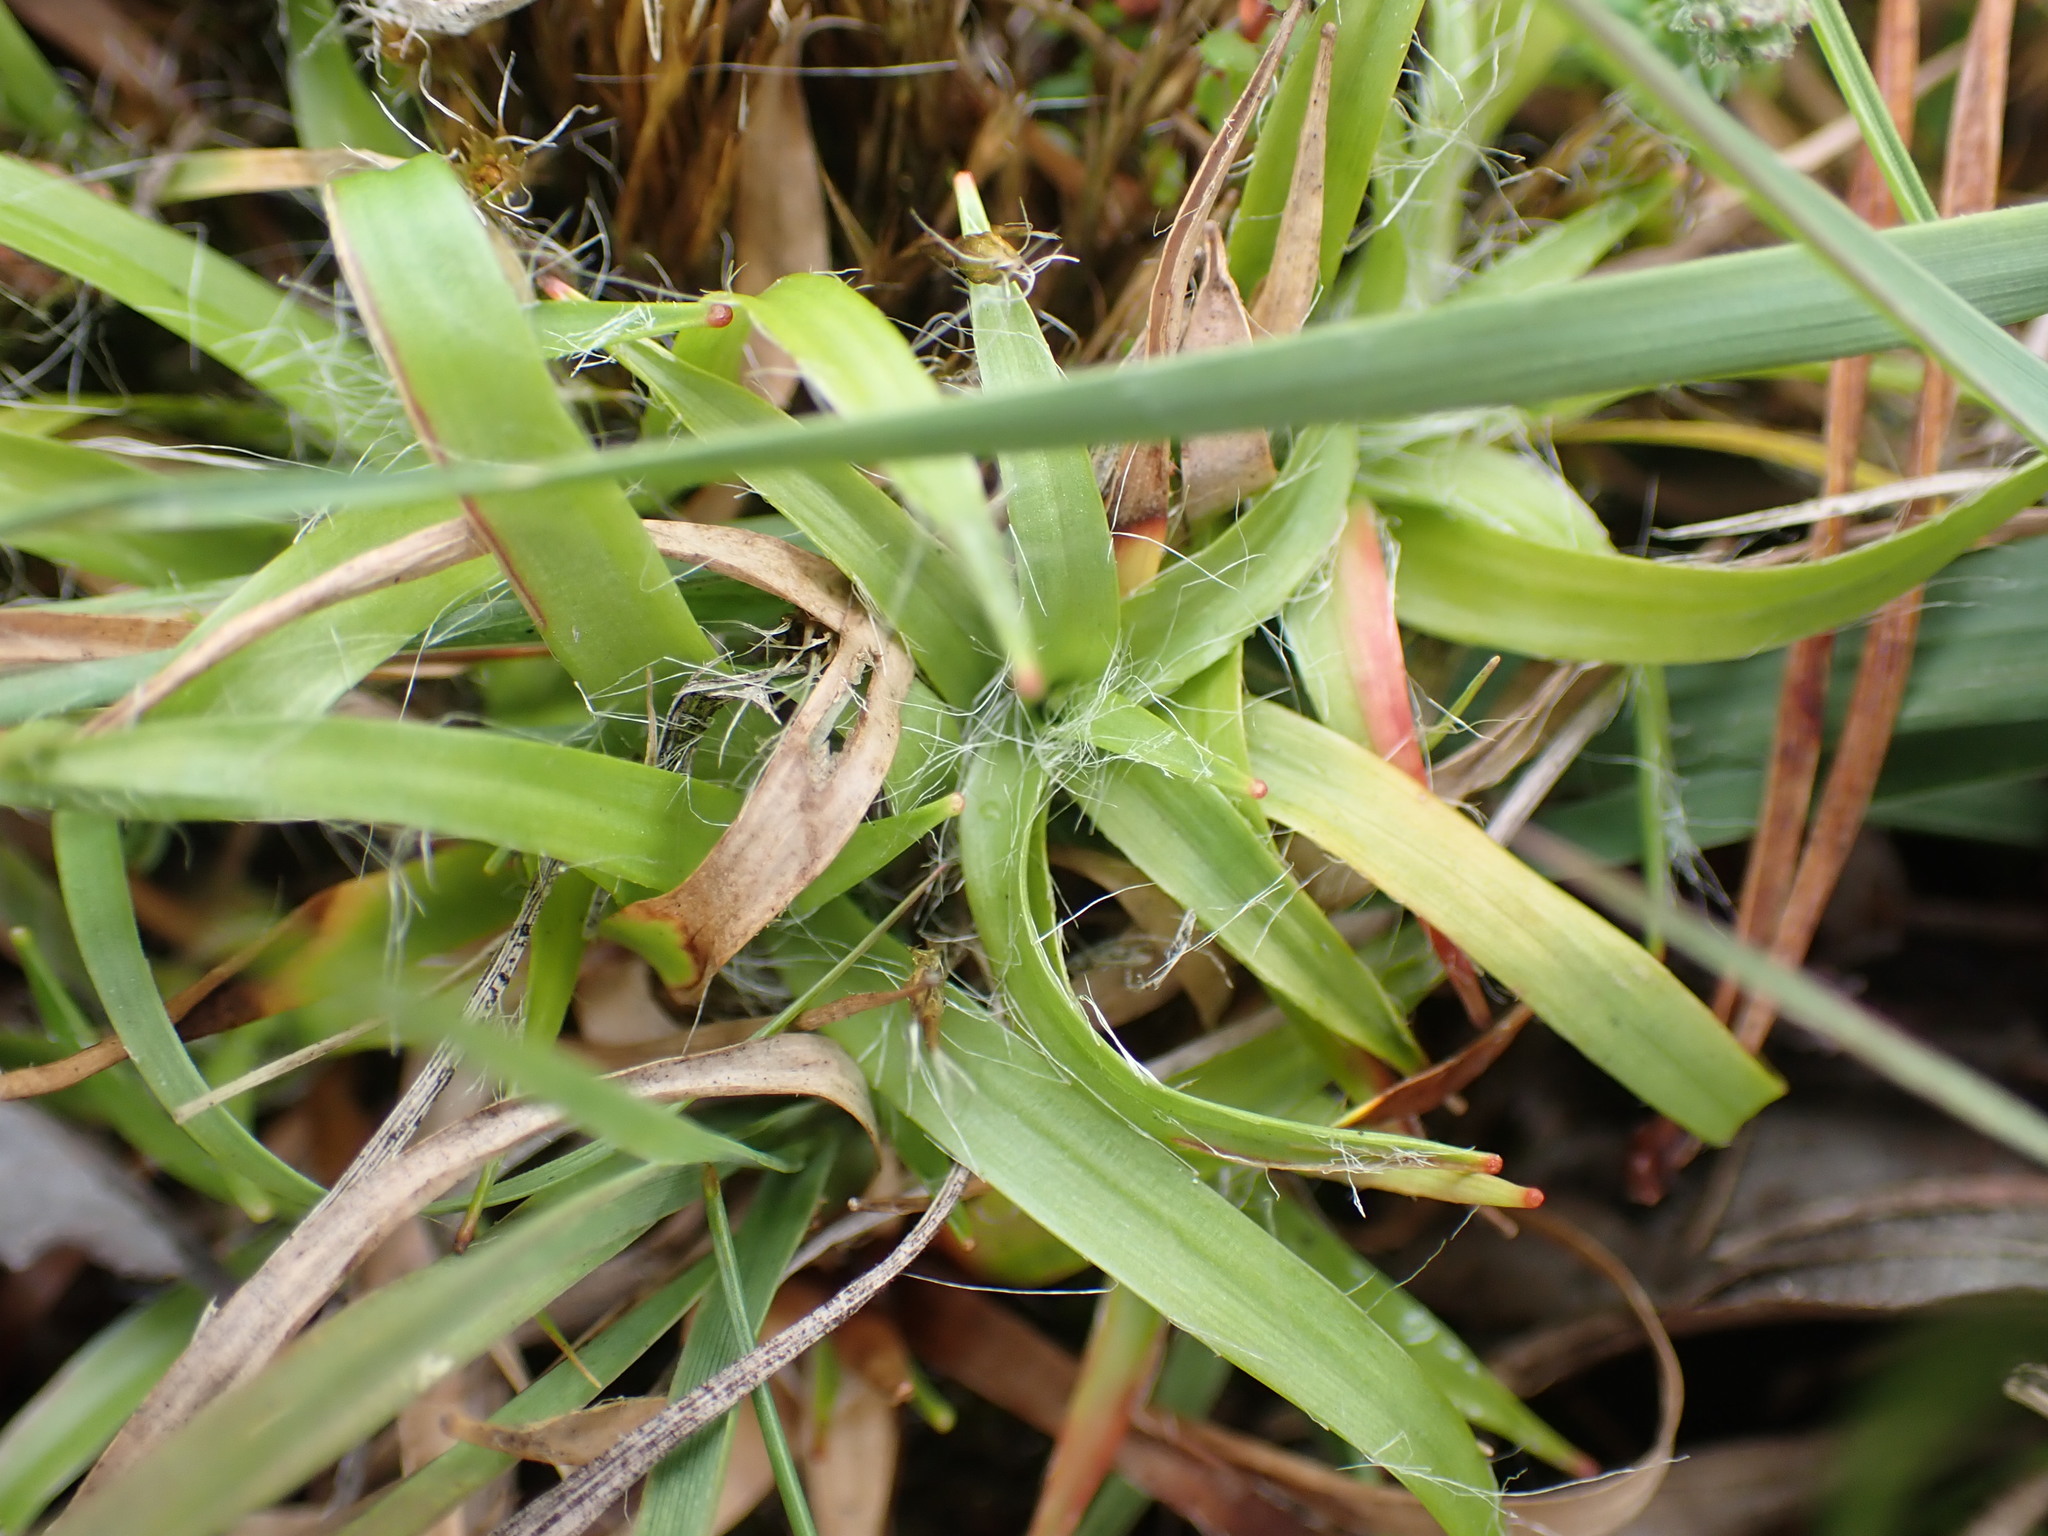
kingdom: Plantae
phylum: Tracheophyta
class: Liliopsida
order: Poales
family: Juncaceae
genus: Luzula
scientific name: Luzula multiflora
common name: Heath wood-rush
